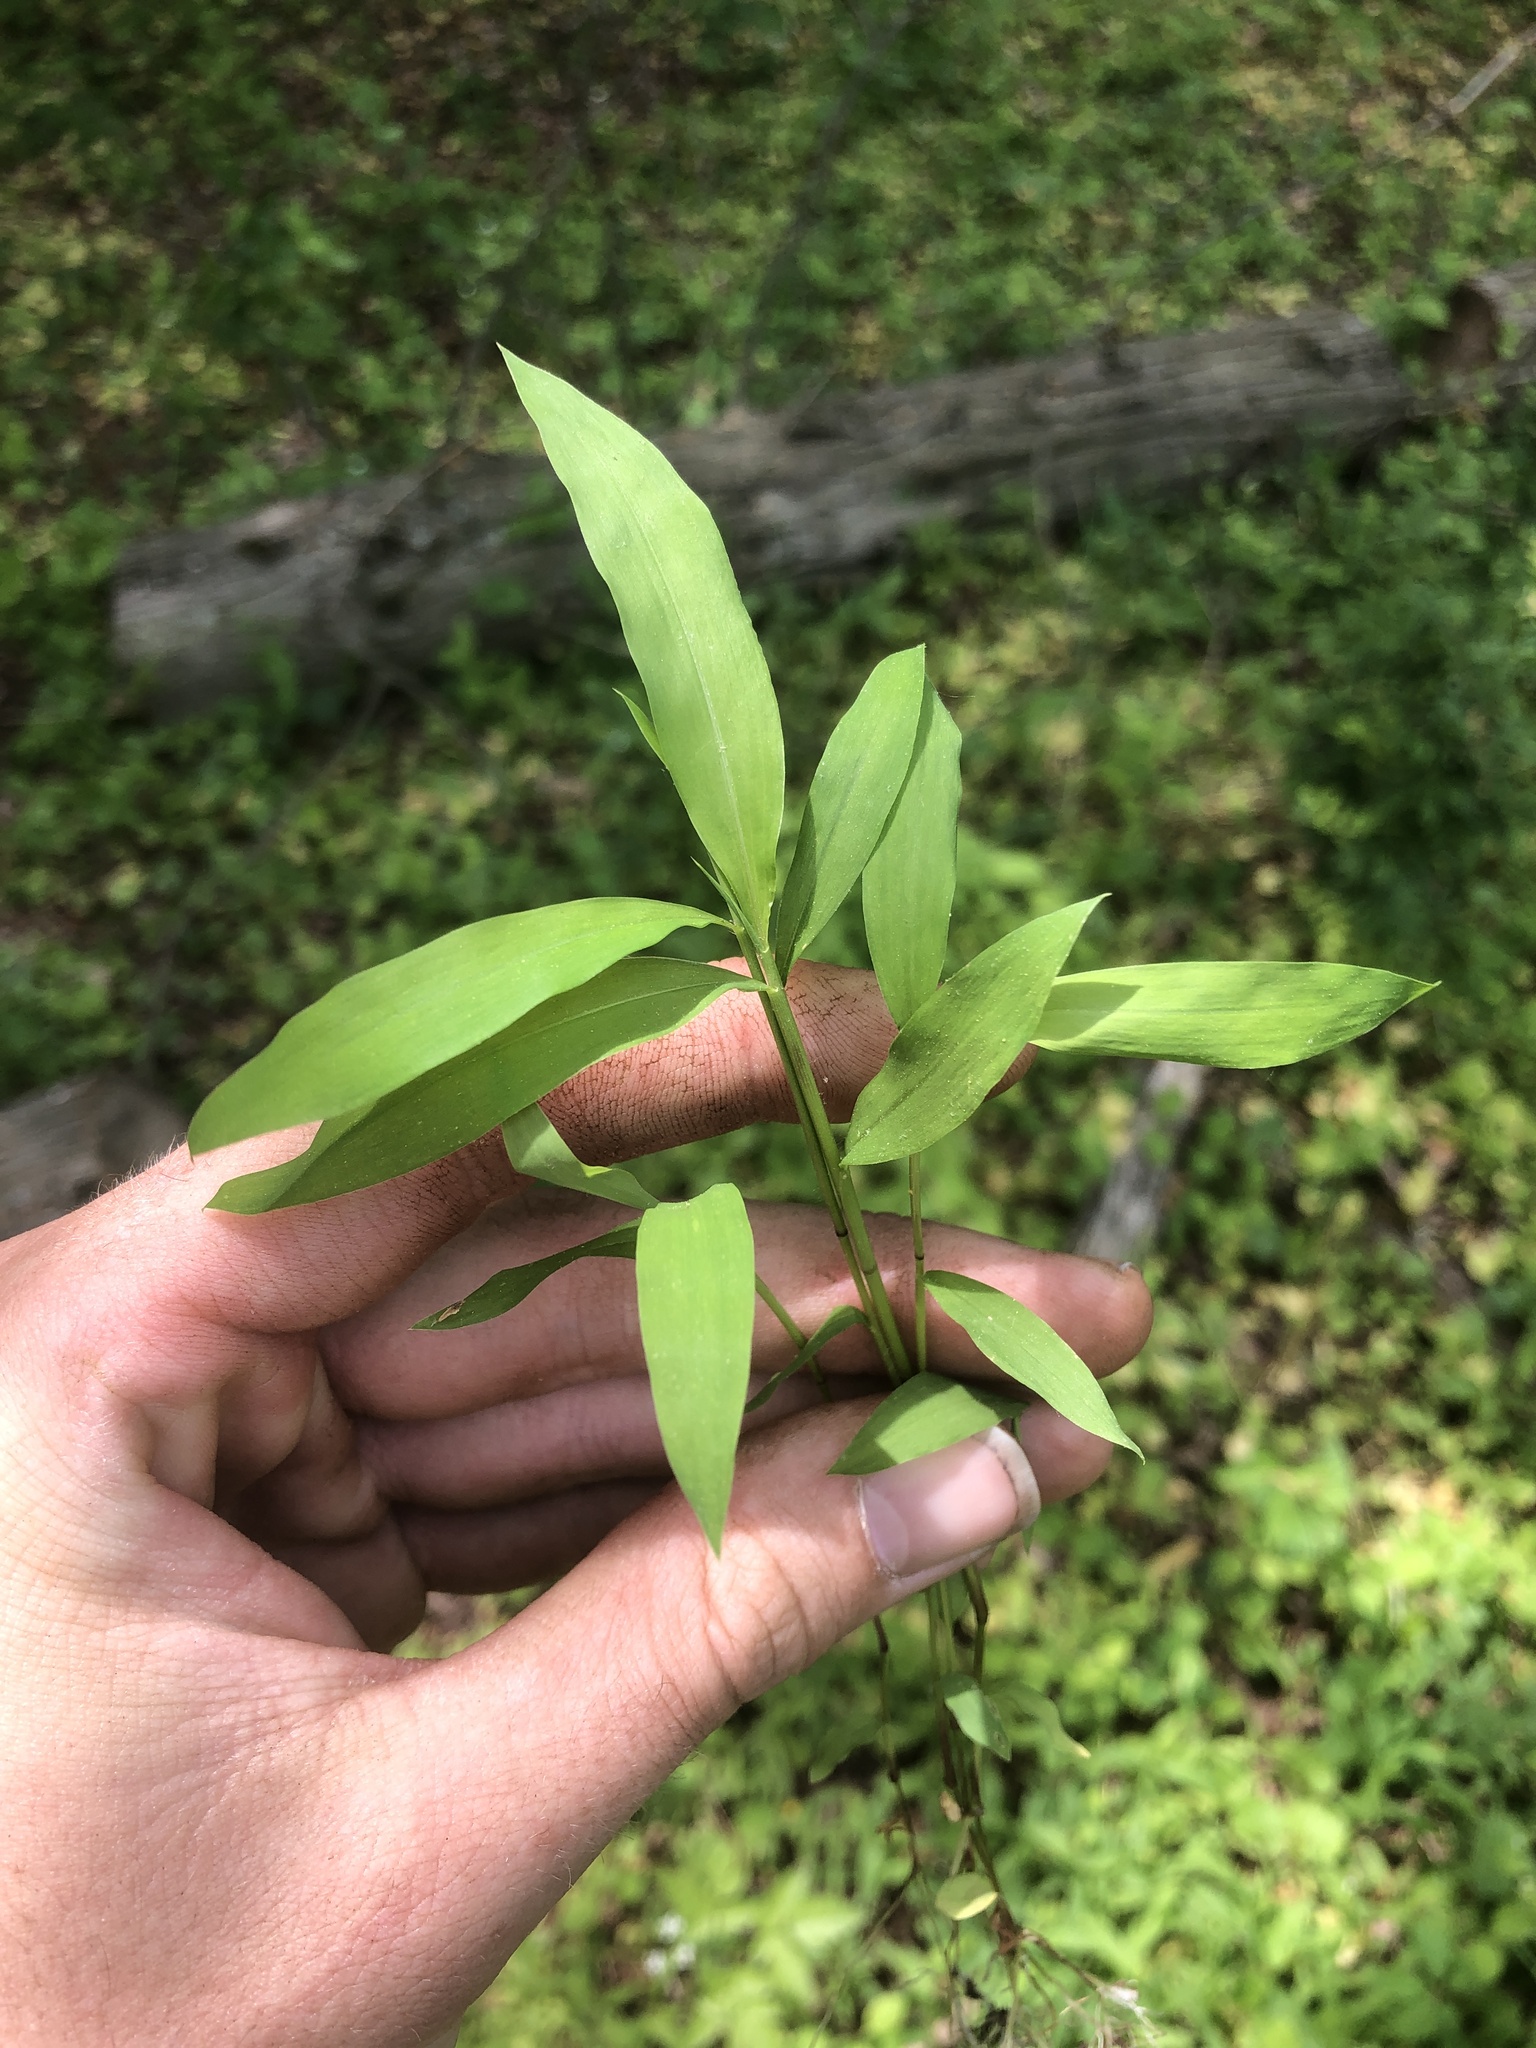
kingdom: Plantae
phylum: Tracheophyta
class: Liliopsida
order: Poales
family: Poaceae
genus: Microstegium
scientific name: Microstegium vimineum
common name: Japanese stiltgrass
